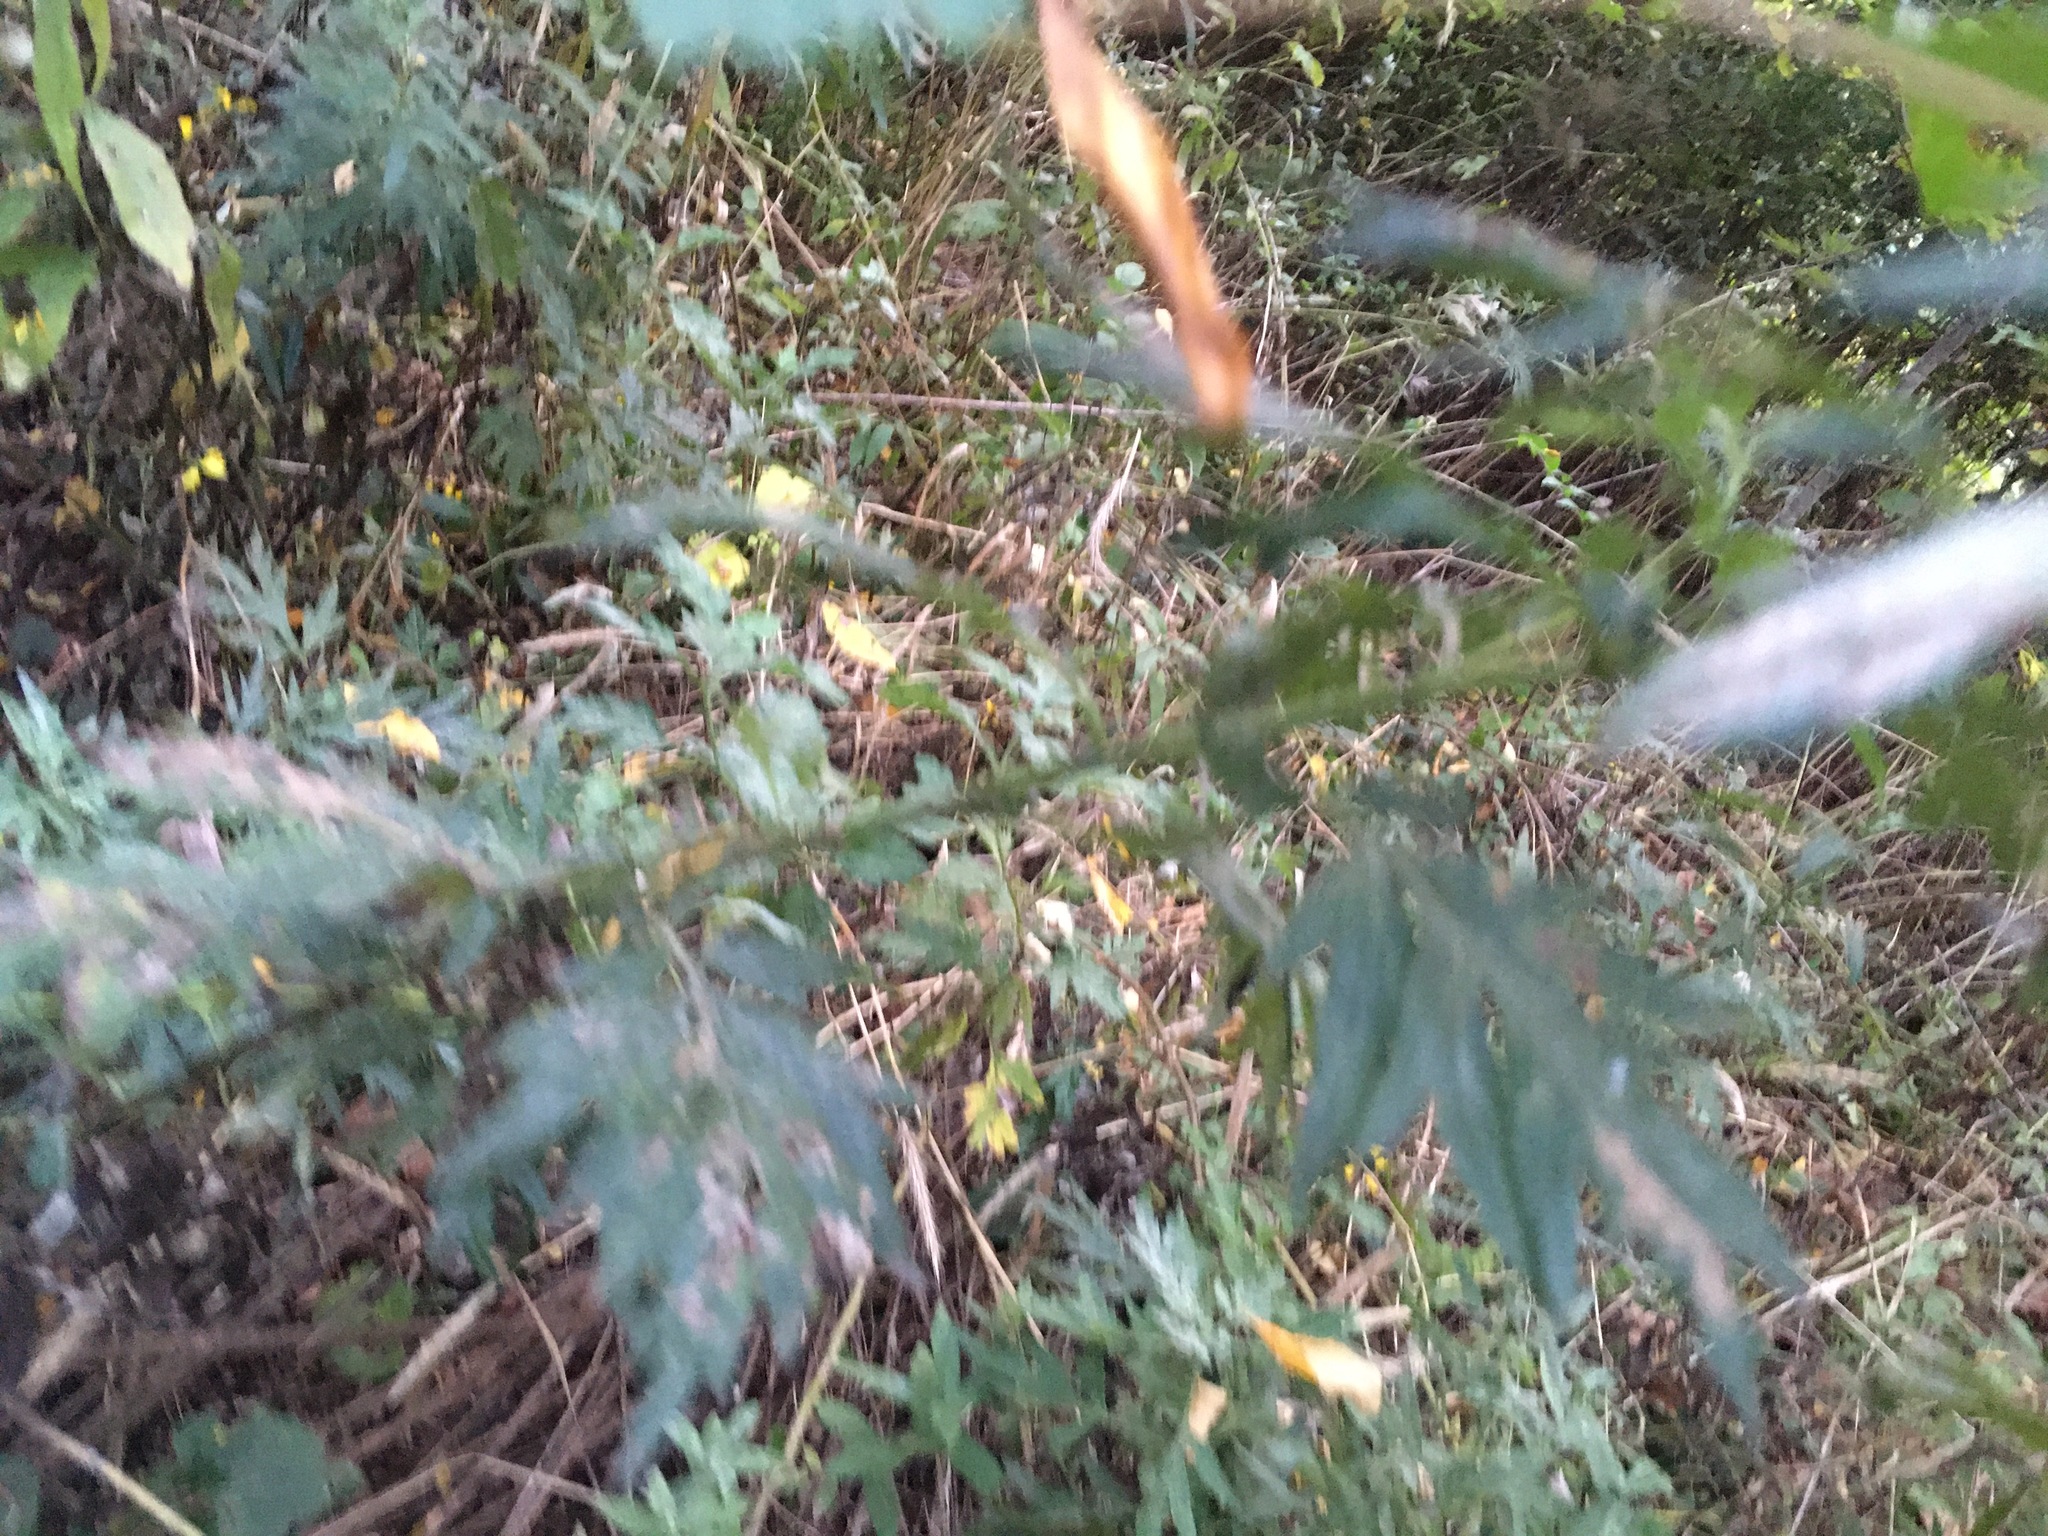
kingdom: Plantae
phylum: Tracheophyta
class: Magnoliopsida
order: Asterales
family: Asteraceae
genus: Artemisia
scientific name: Artemisia vulgaris
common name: Mugwort
